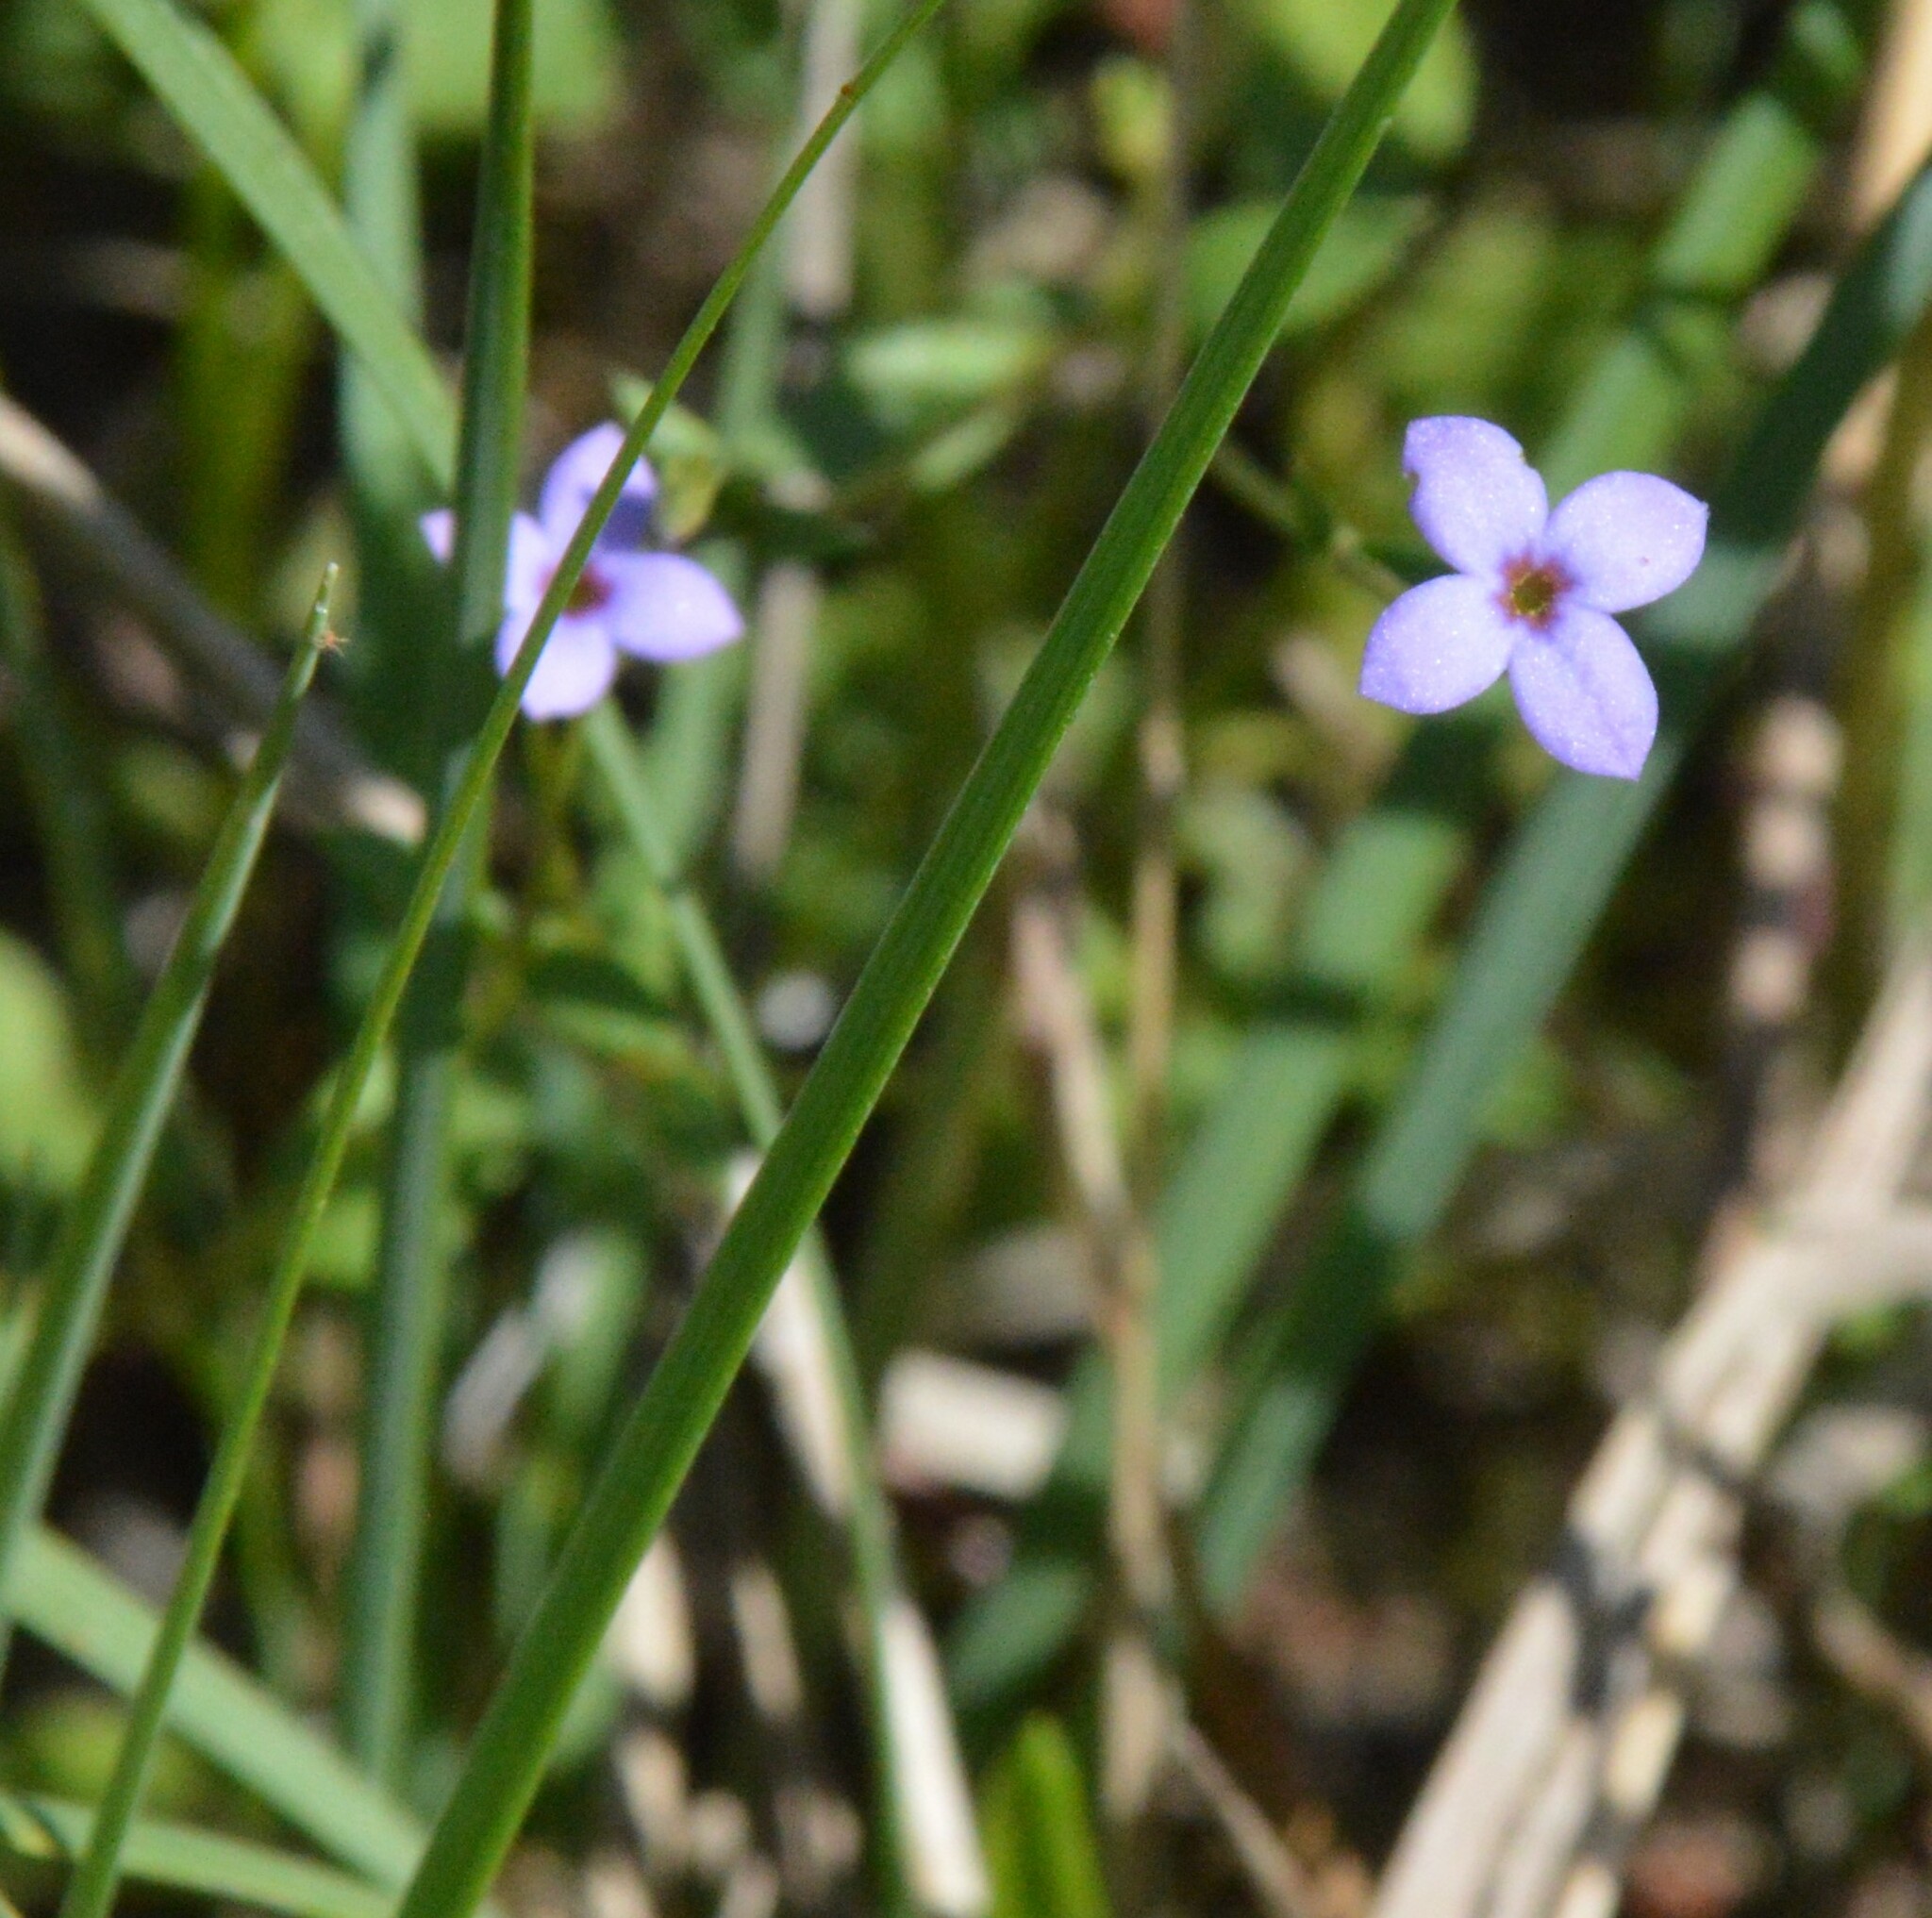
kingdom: Plantae
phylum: Tracheophyta
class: Magnoliopsida
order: Gentianales
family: Rubiaceae
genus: Houstonia
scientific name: Houstonia pusilla
